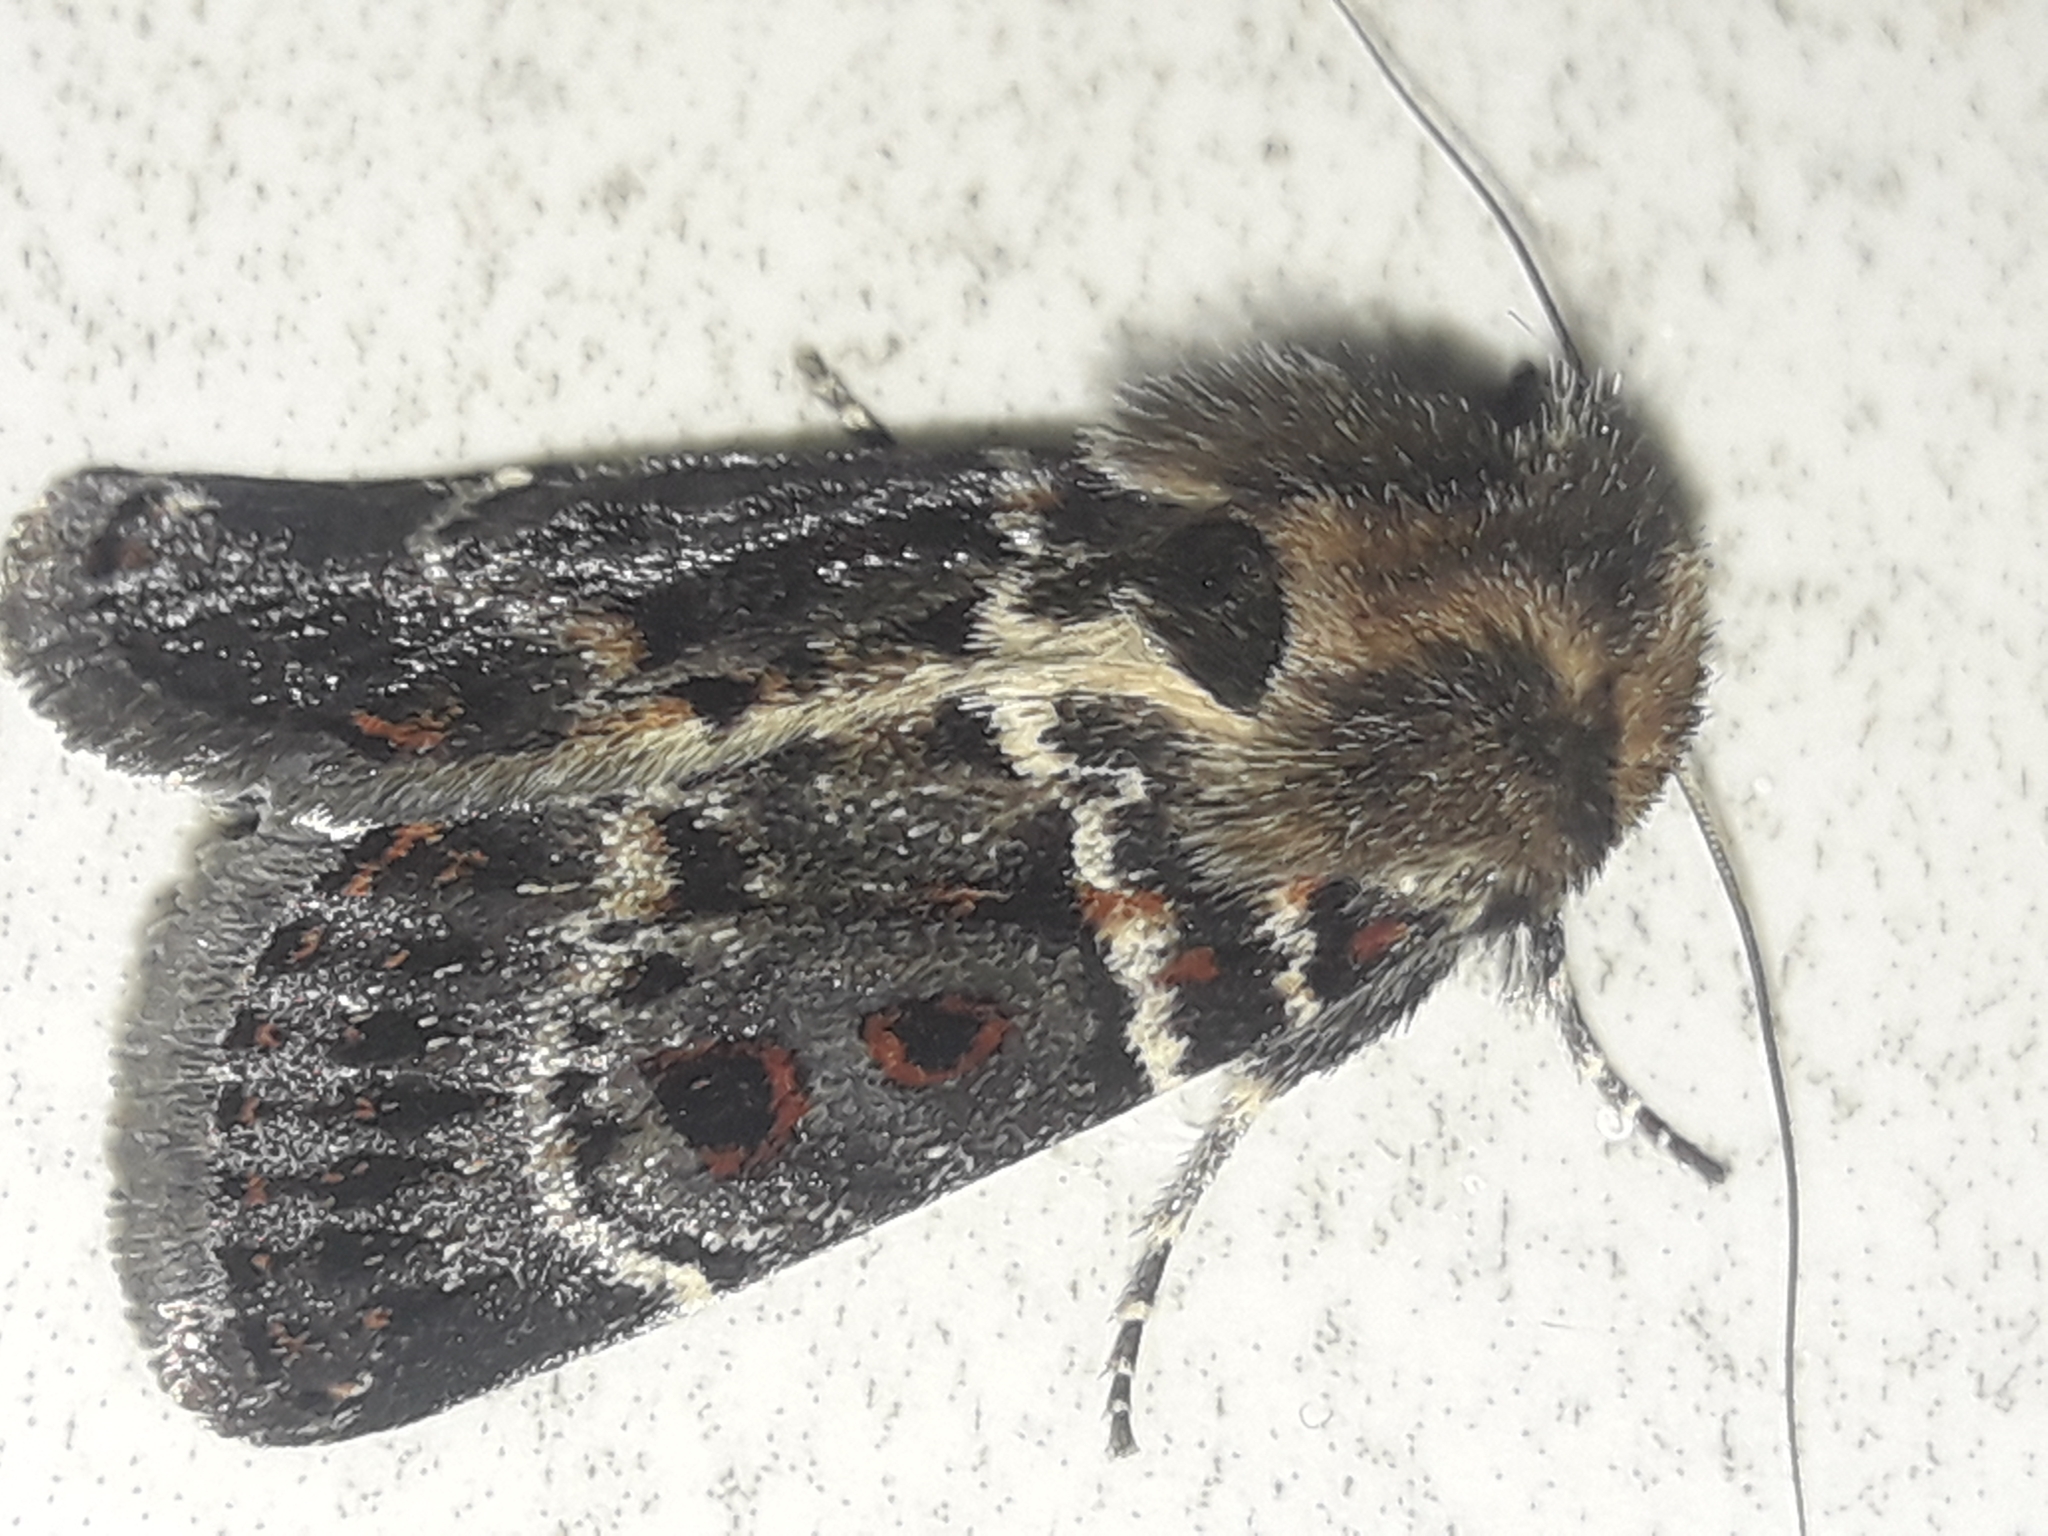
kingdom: Animalia
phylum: Arthropoda
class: Insecta
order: Lepidoptera
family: Noctuidae
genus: Proteuxoa
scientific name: Proteuxoa sanguinipuncta
